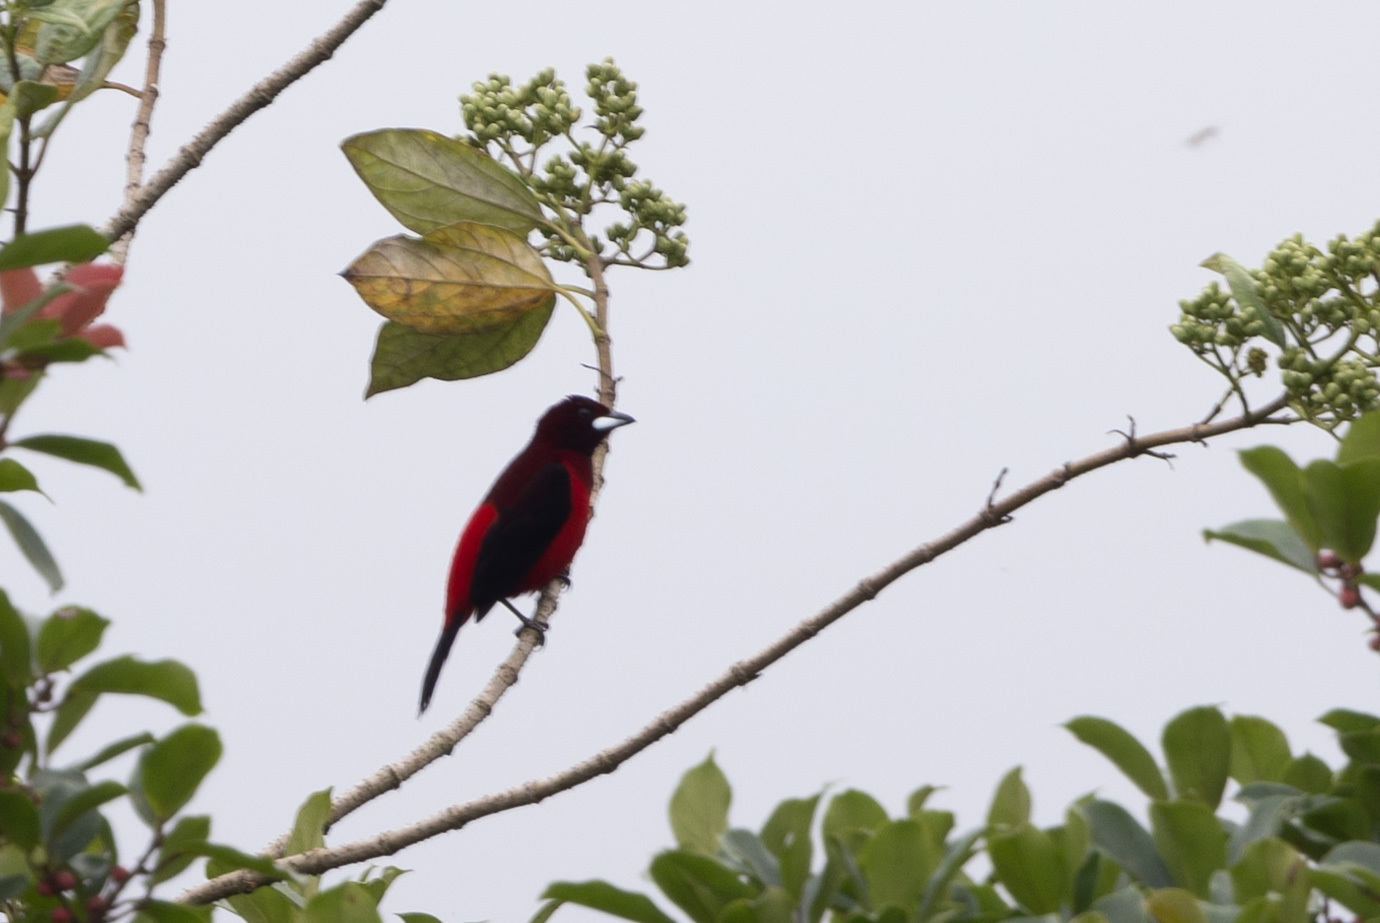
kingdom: Animalia
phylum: Chordata
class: Aves
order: Passeriformes
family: Thraupidae
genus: Ramphocelus
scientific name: Ramphocelus dimidiatus
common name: Crimson-backed tanager
